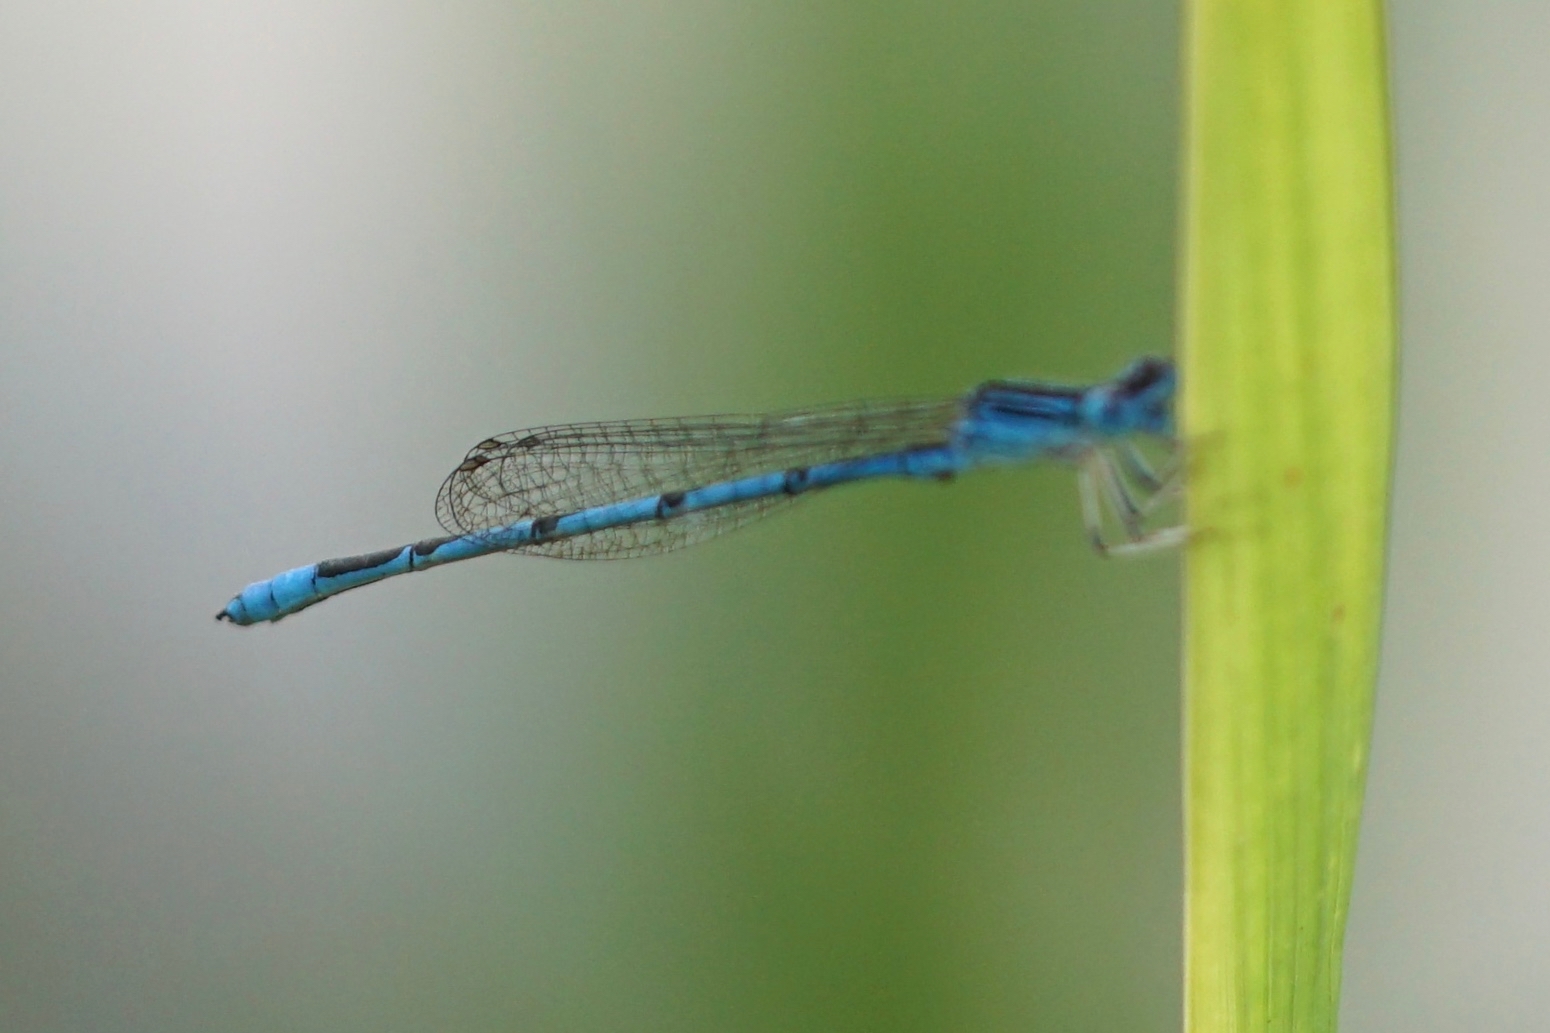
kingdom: Animalia
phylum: Arthropoda
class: Insecta
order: Odonata
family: Coenagrionidae
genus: Enallagma
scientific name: Enallagma basidens
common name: Double-striped bluet
